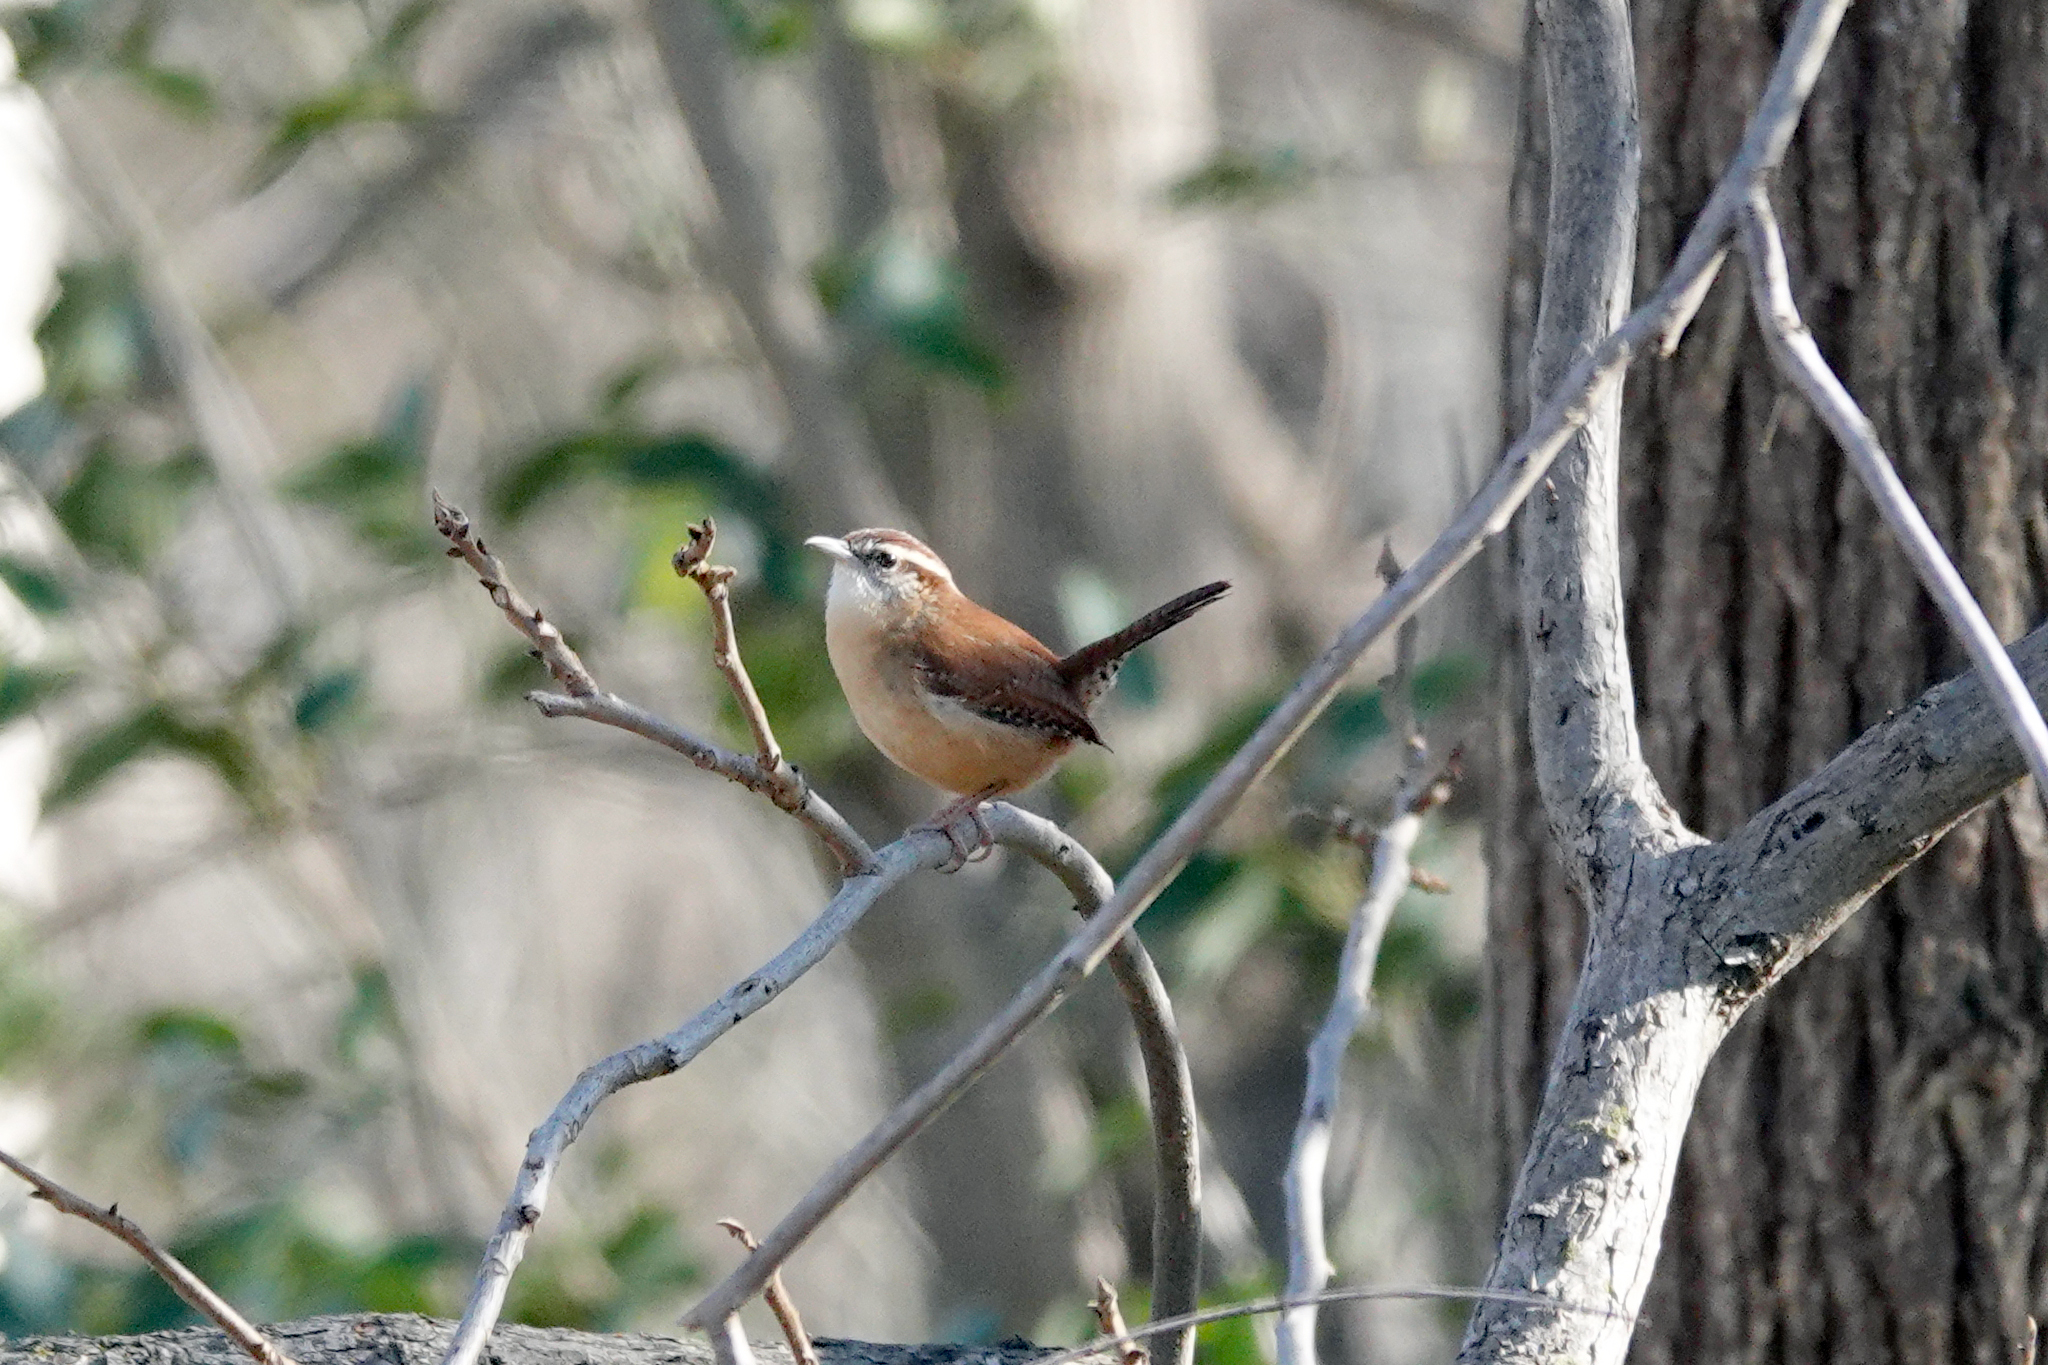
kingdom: Animalia
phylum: Chordata
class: Aves
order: Passeriformes
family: Troglodytidae
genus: Thryothorus
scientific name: Thryothorus ludovicianus
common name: Carolina wren
